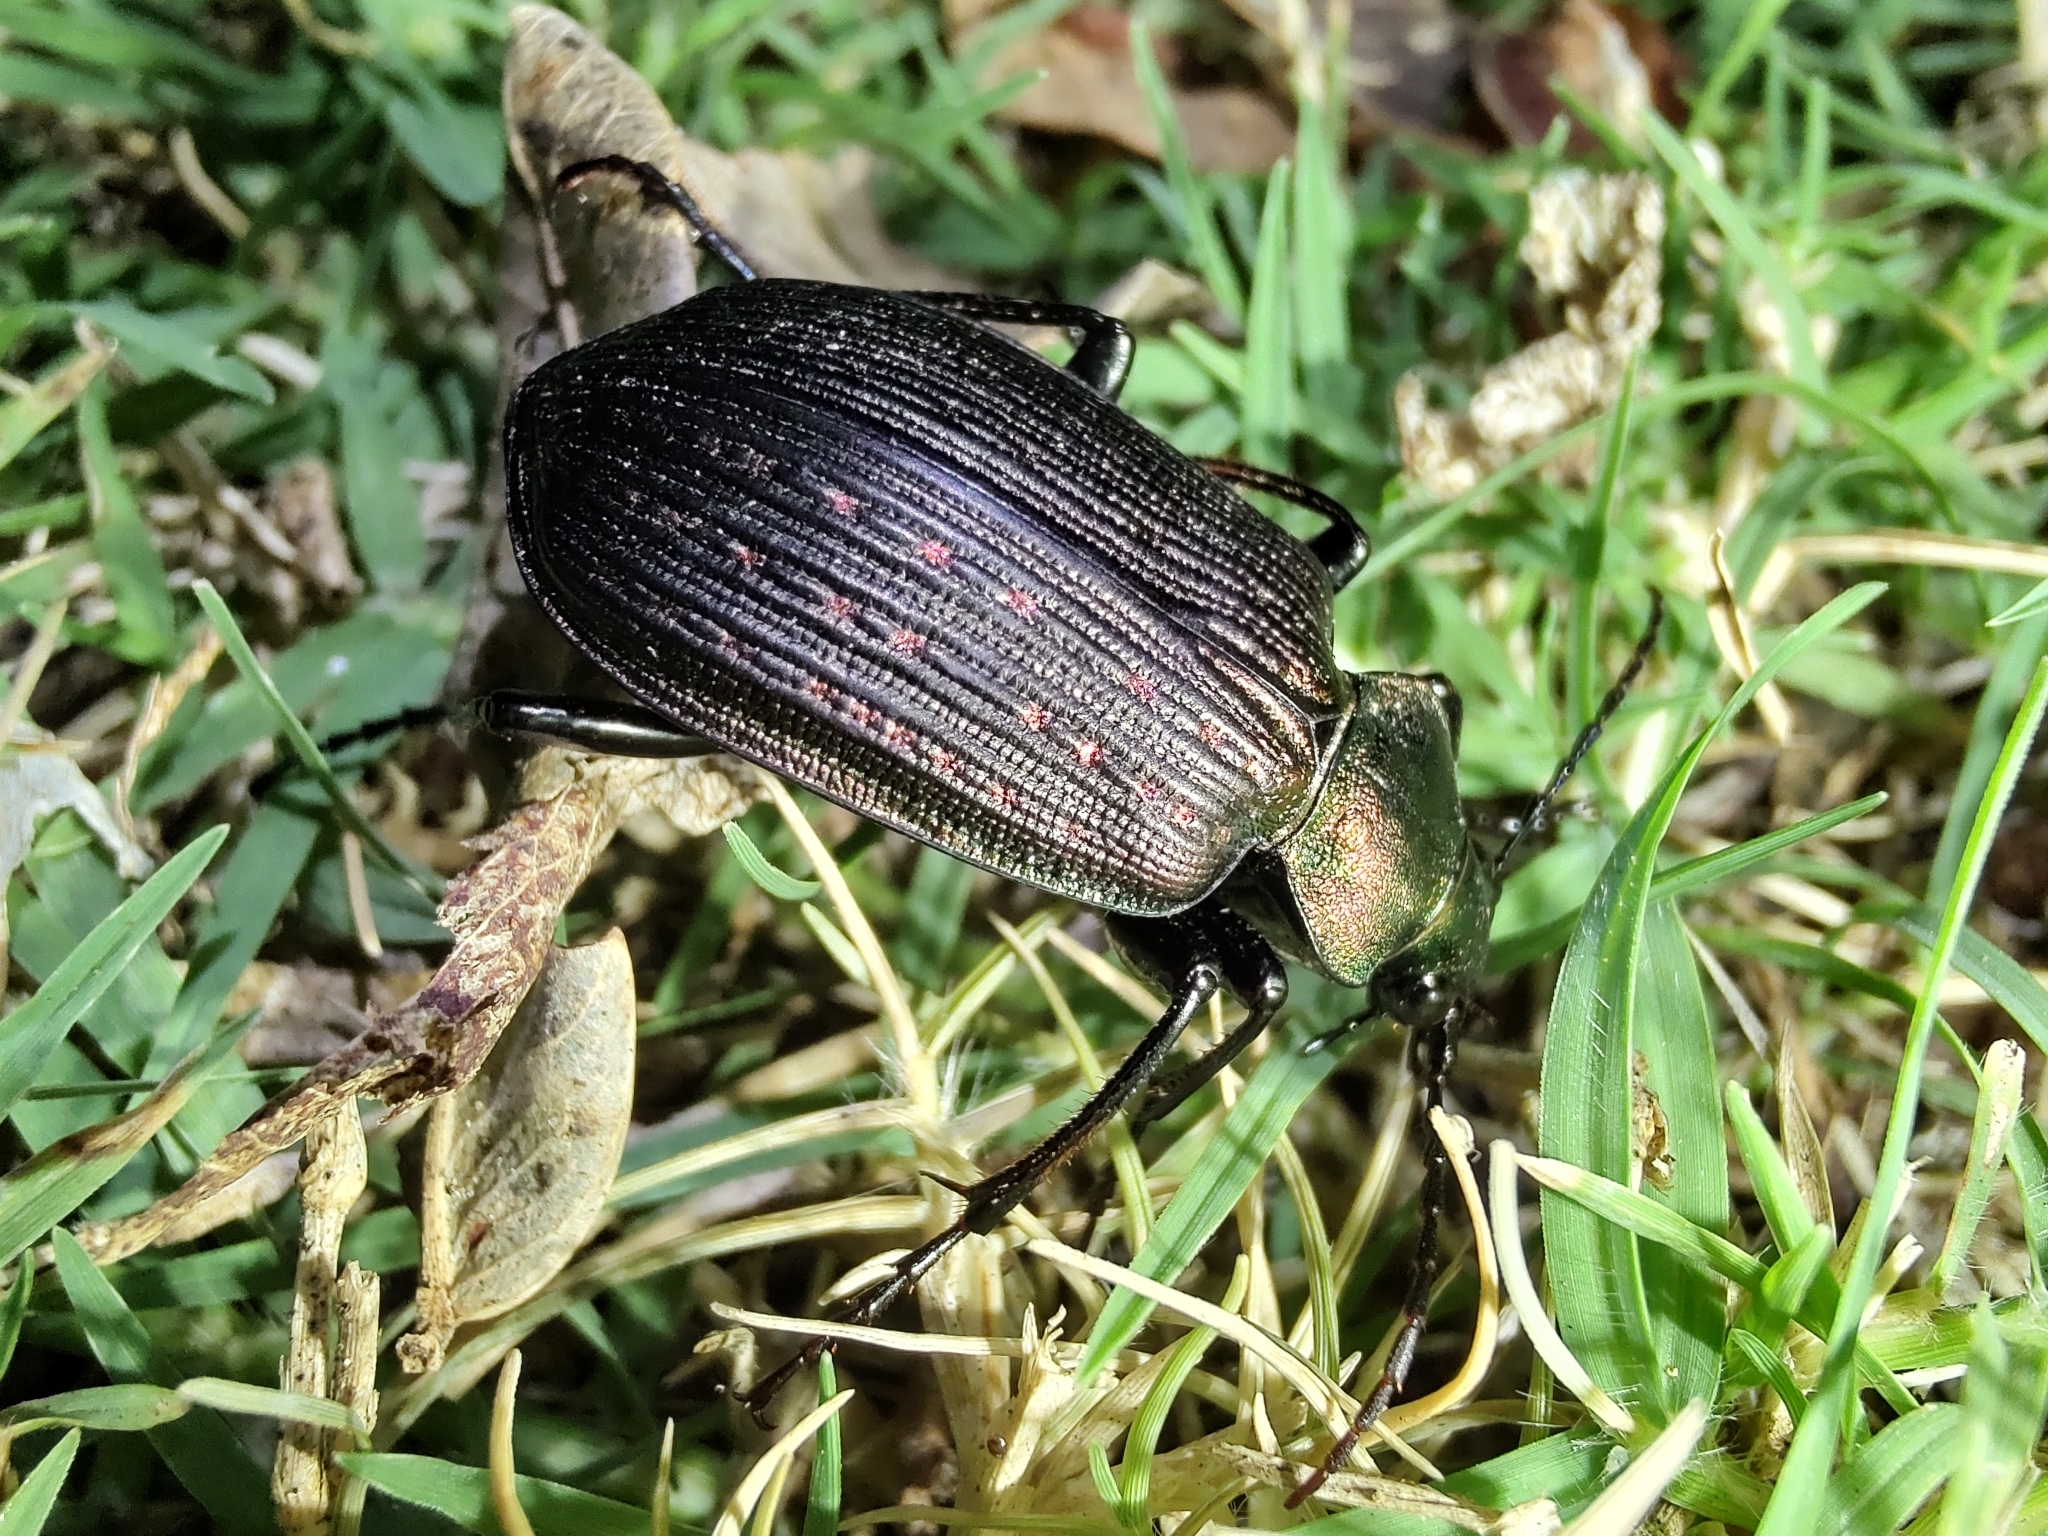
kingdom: Animalia
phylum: Arthropoda
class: Insecta
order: Coleoptera
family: Carabidae
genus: Calosoma
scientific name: Calosoma alternans
